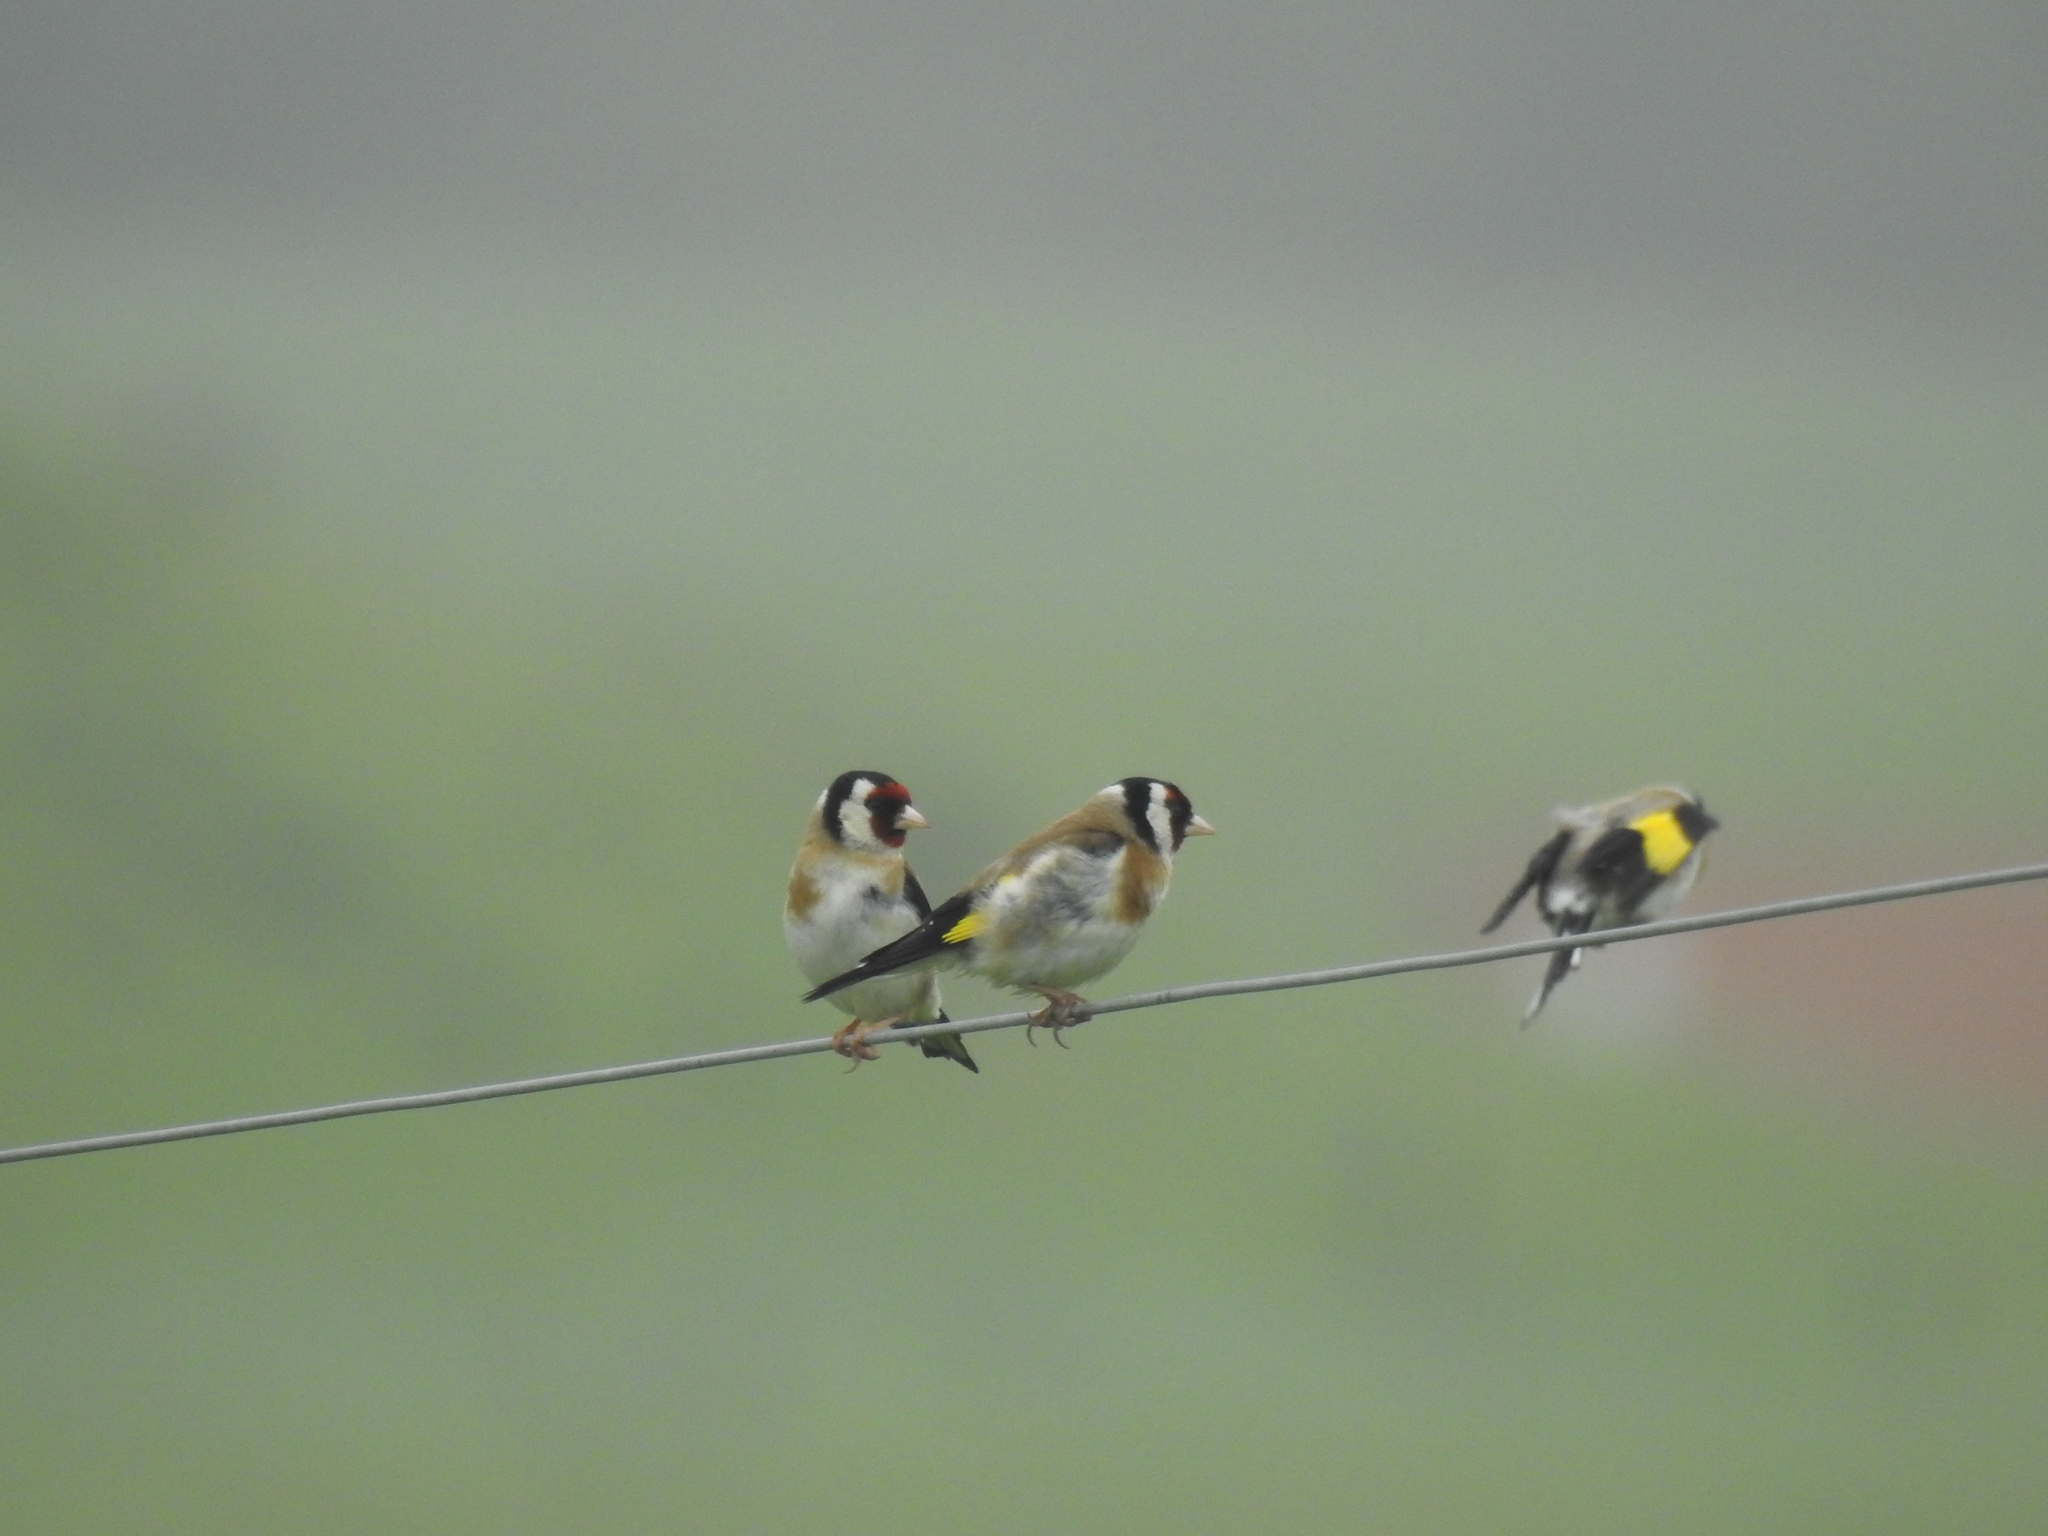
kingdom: Animalia
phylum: Chordata
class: Aves
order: Passeriformes
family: Fringillidae
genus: Carduelis
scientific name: Carduelis carduelis
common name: European goldfinch
